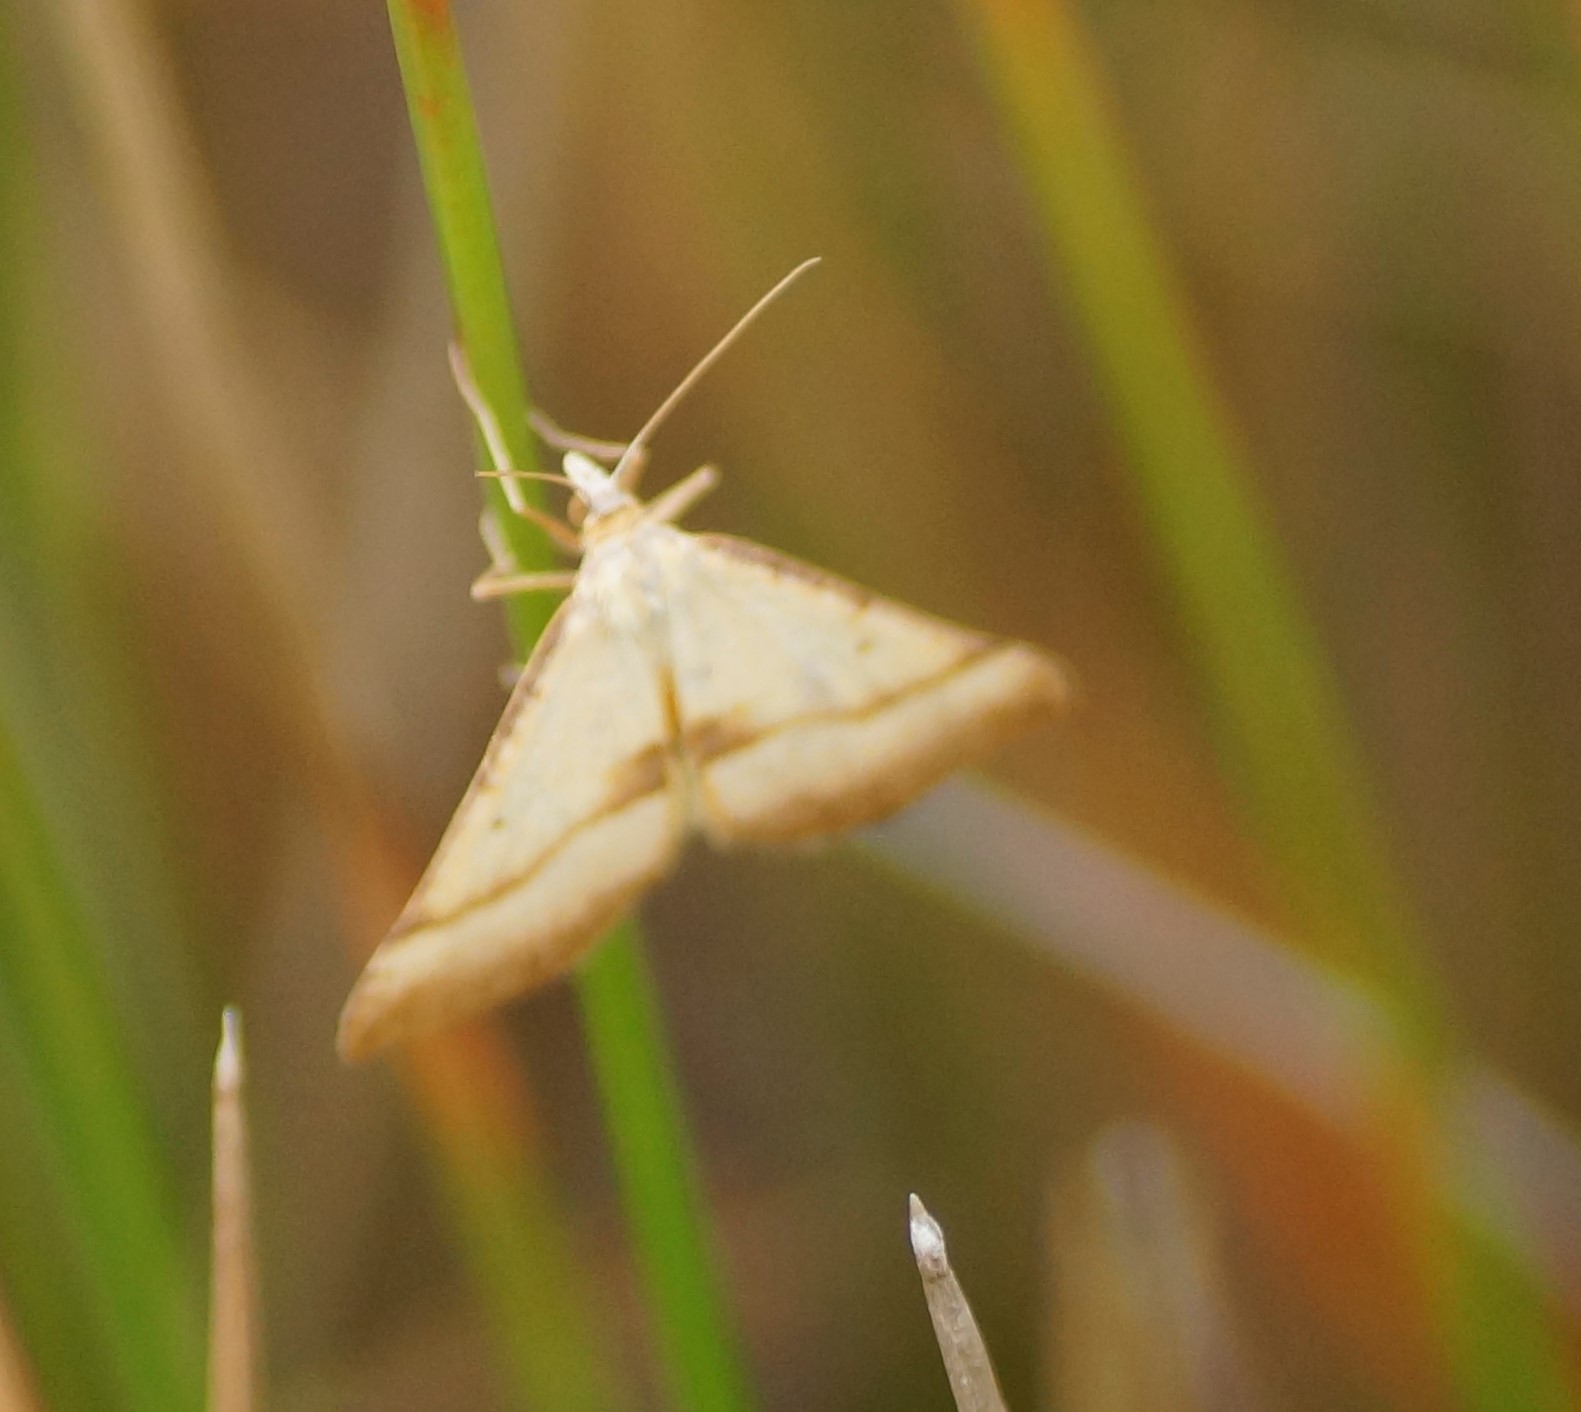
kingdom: Animalia
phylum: Arthropoda
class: Insecta
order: Lepidoptera
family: Geometridae
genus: Anachloris
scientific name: Anachloris subochraria
